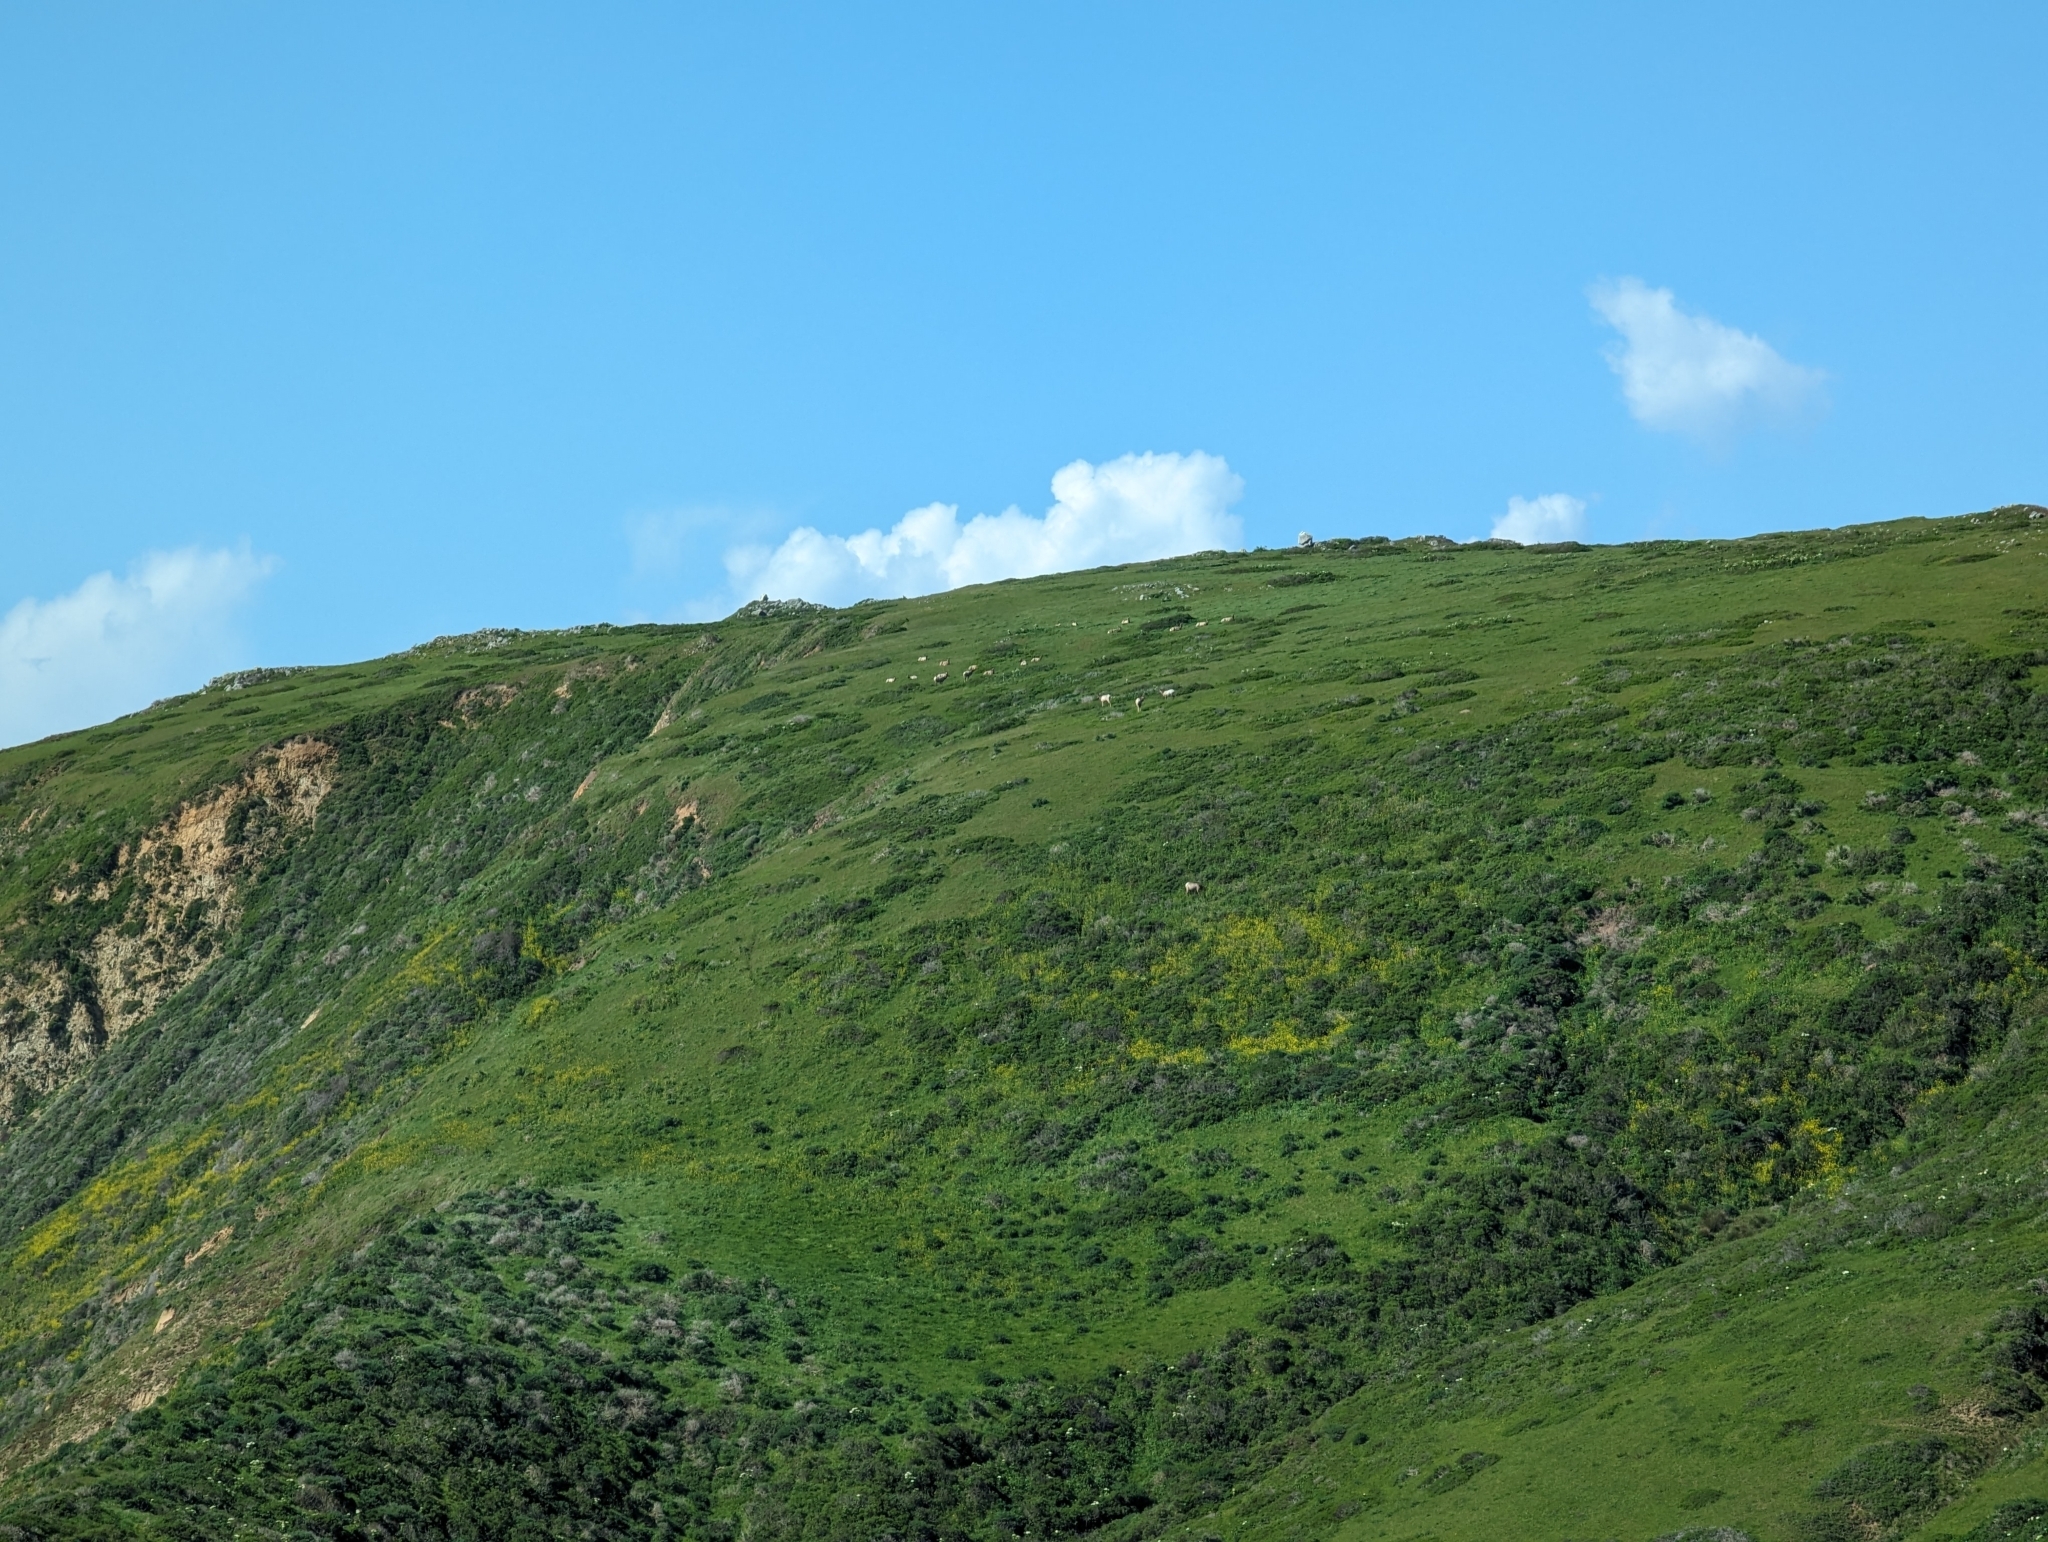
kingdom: Animalia
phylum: Chordata
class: Mammalia
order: Artiodactyla
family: Cervidae
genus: Cervus
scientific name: Cervus elaphus
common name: Red deer
